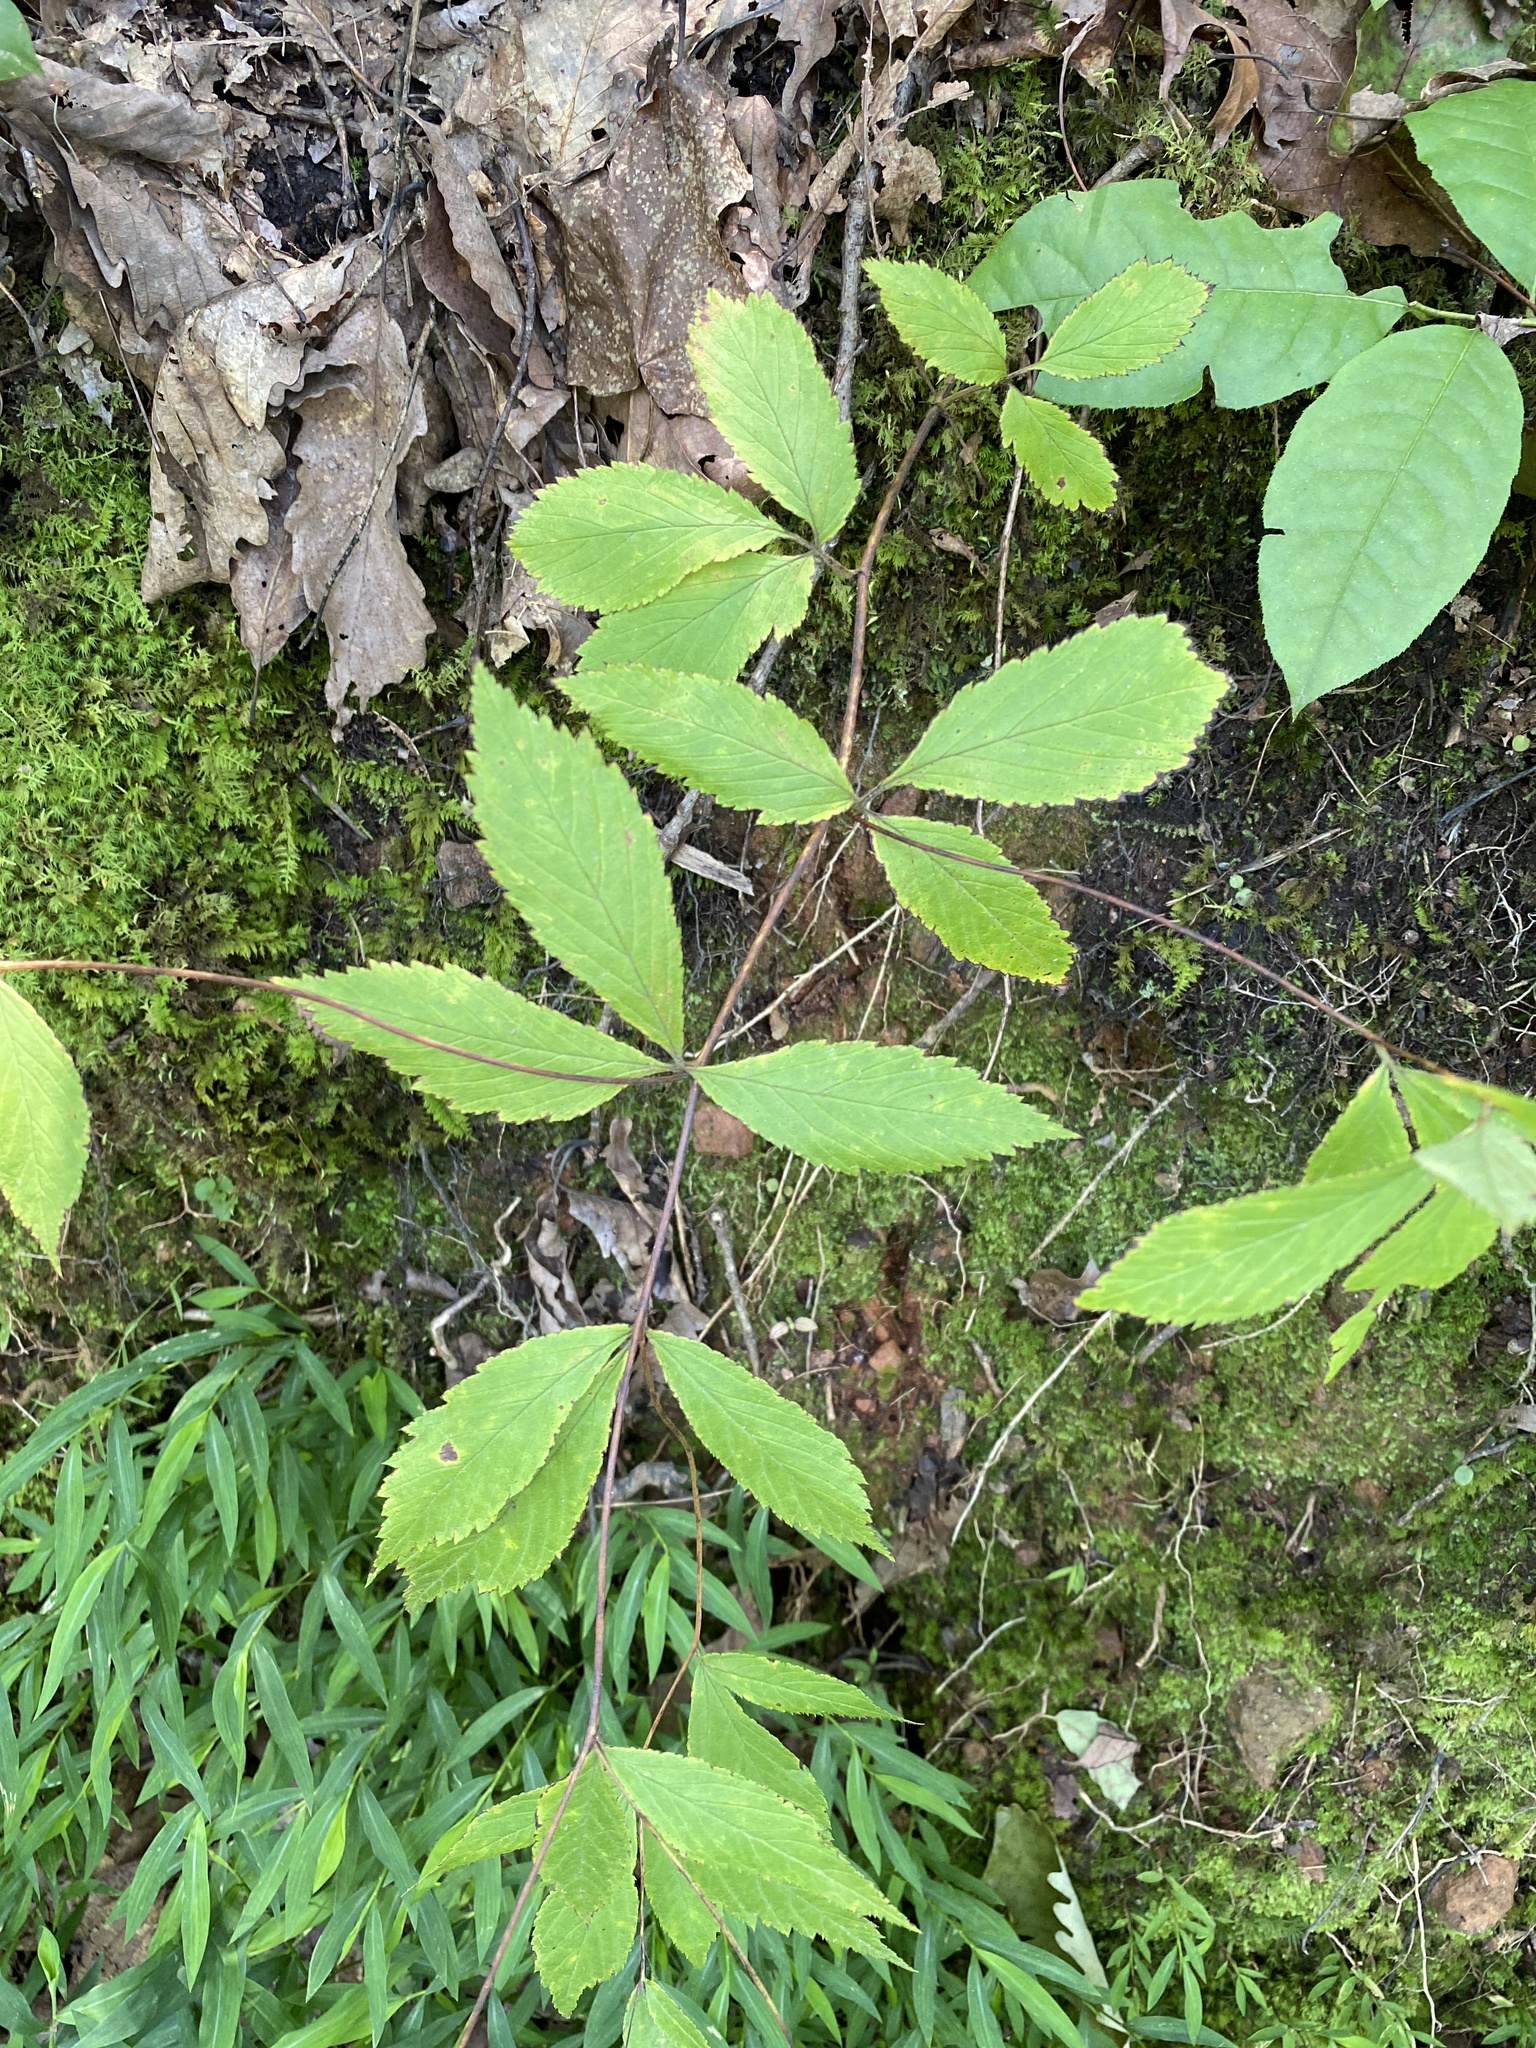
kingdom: Plantae
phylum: Tracheophyta
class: Magnoliopsida
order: Rosales
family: Rosaceae
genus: Gillenia
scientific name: Gillenia trifoliata
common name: Bowman's-root
